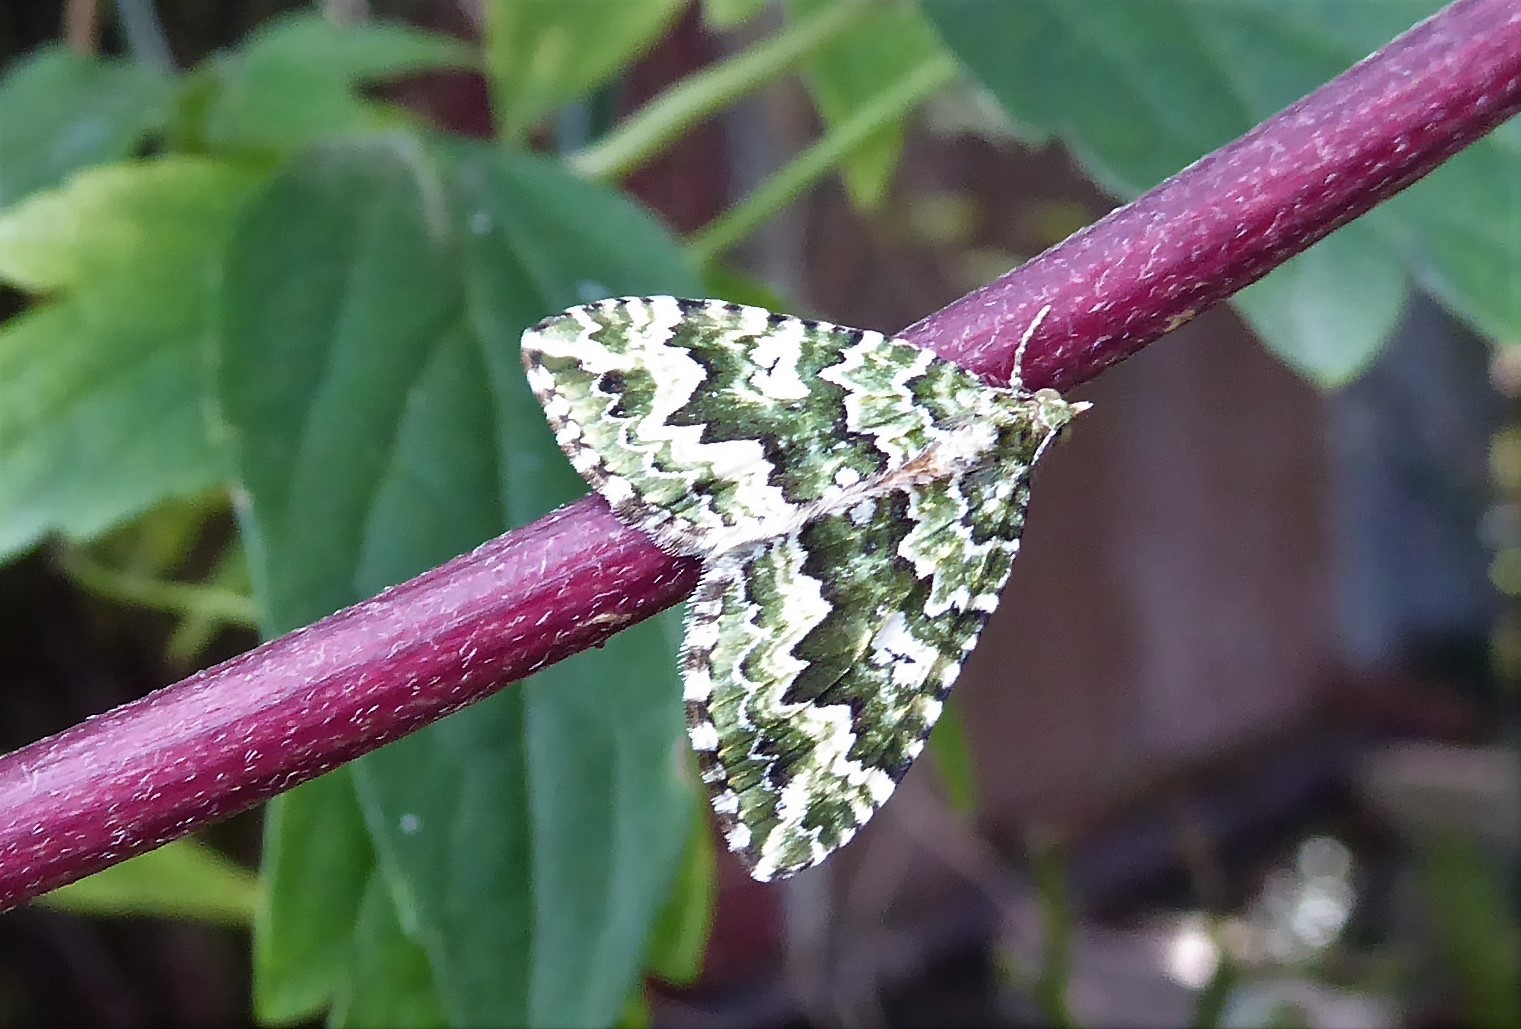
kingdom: Animalia
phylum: Arthropoda
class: Insecta
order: Lepidoptera
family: Geometridae
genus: Asaphodes
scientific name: Asaphodes beata
